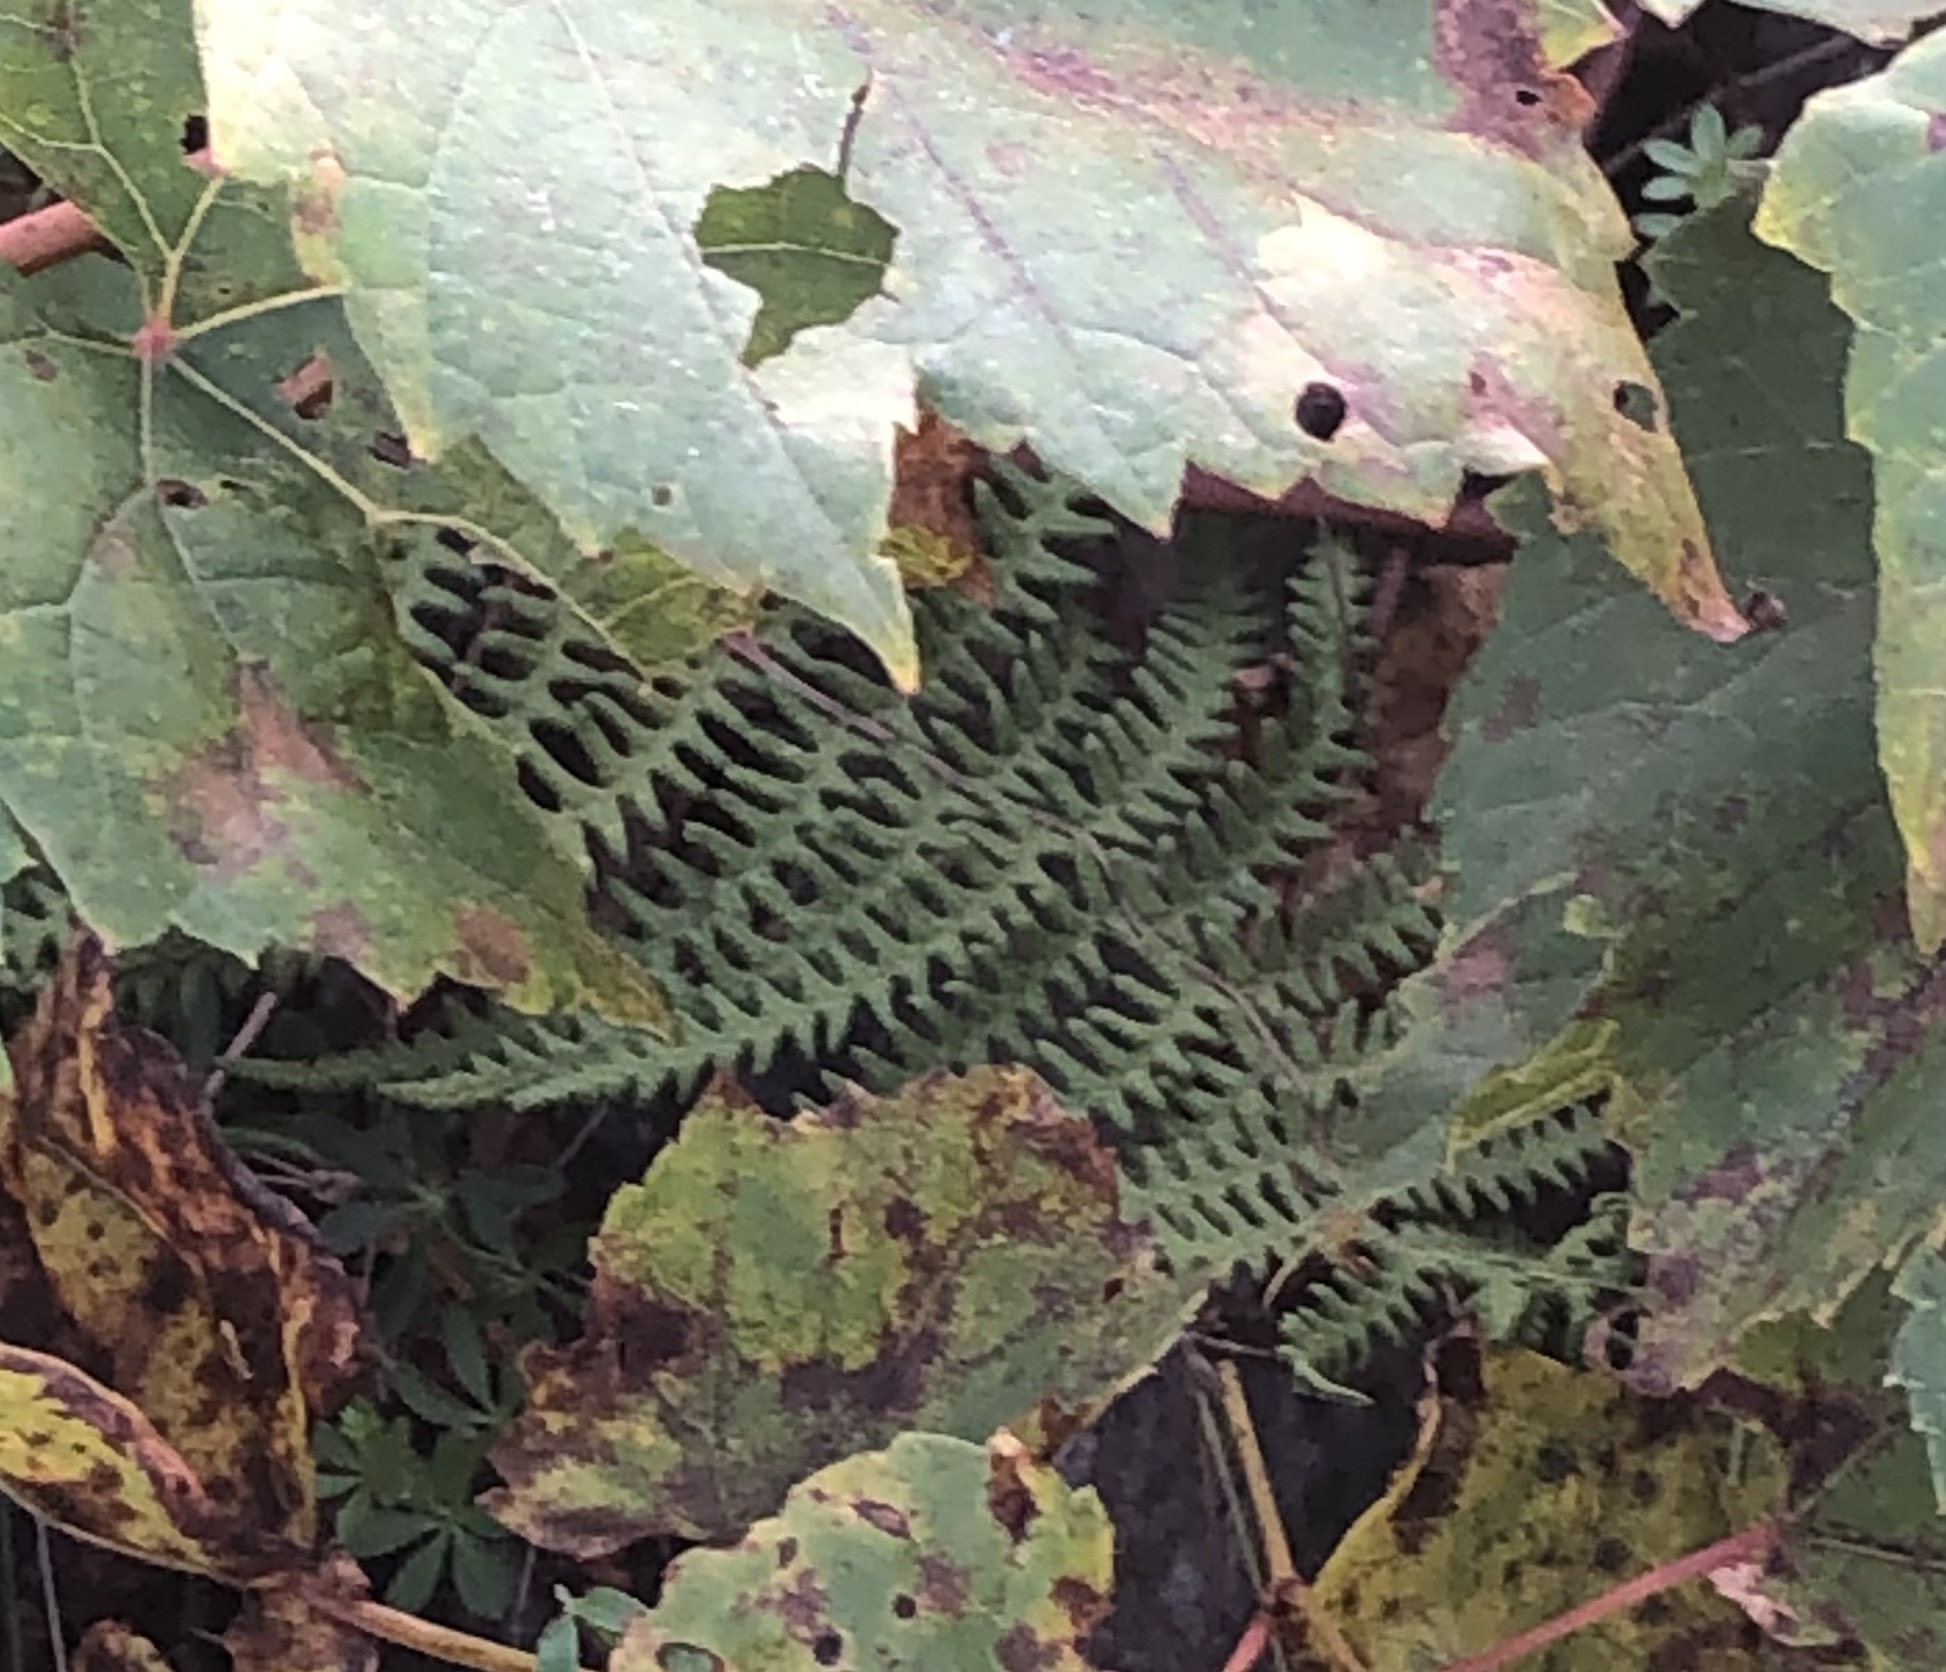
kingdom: Plantae
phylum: Tracheophyta
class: Polypodiopsida
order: Polypodiales
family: Thelypteridaceae
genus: Thelypteris
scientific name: Thelypteris palustris
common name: Marsh fern
